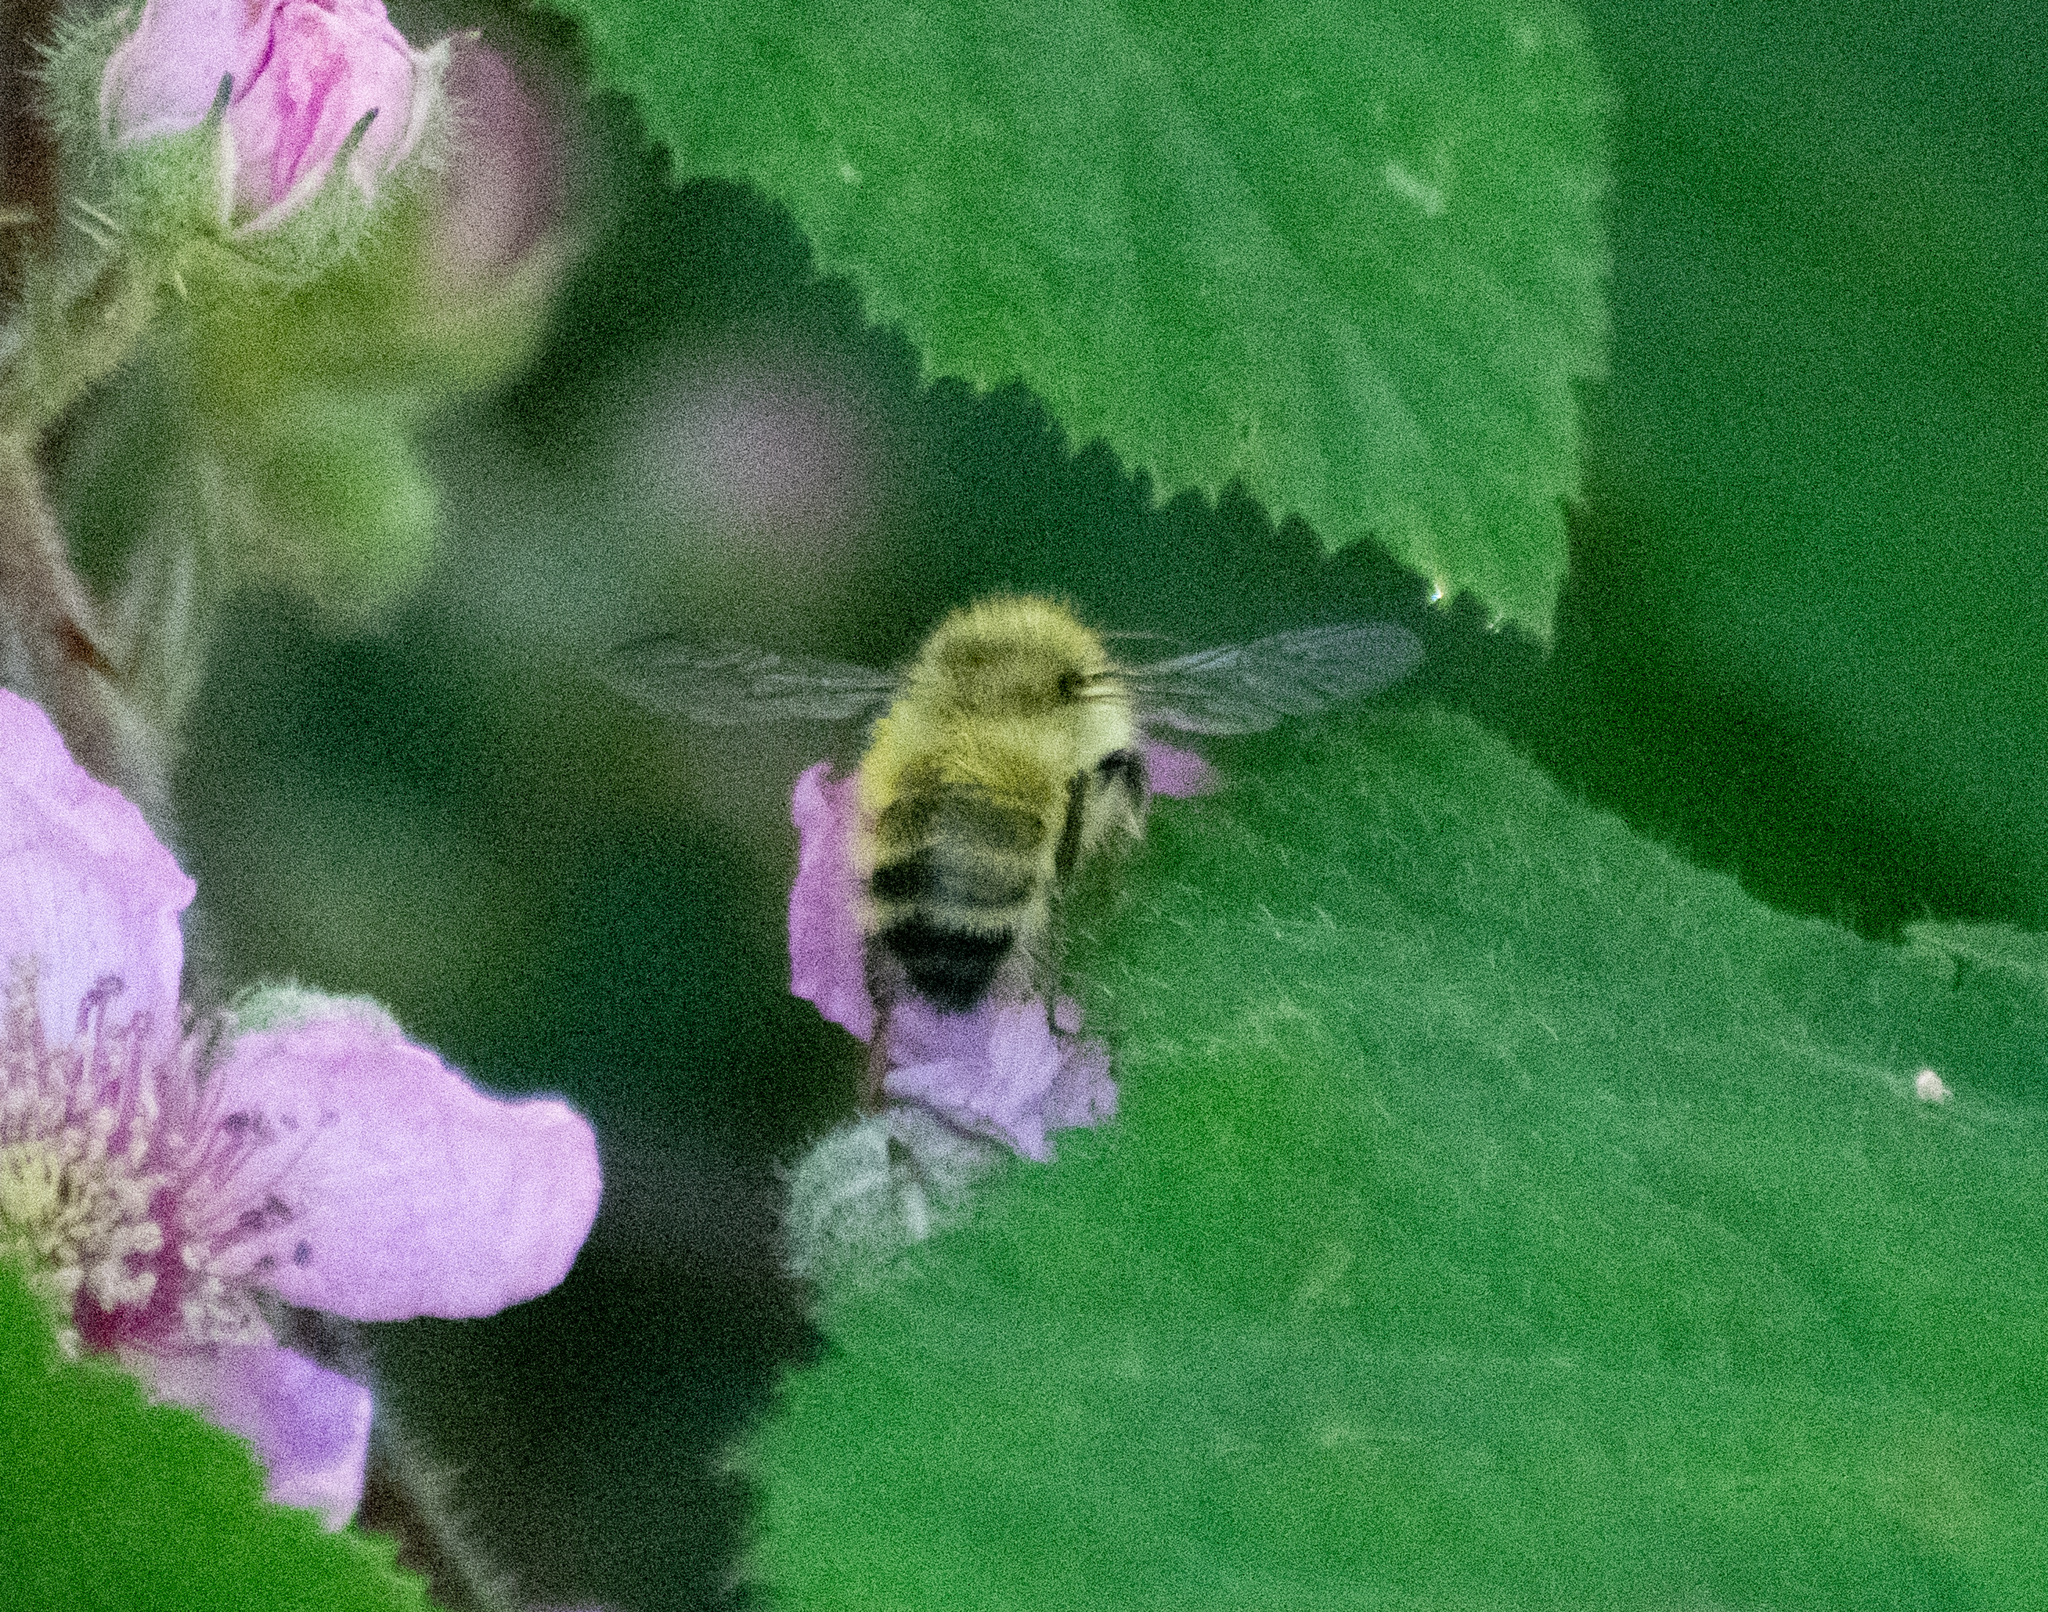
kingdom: Animalia
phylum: Arthropoda
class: Insecta
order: Hymenoptera
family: Apidae
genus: Bombus
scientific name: Bombus flavifrons
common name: Yellow head bumble bee
